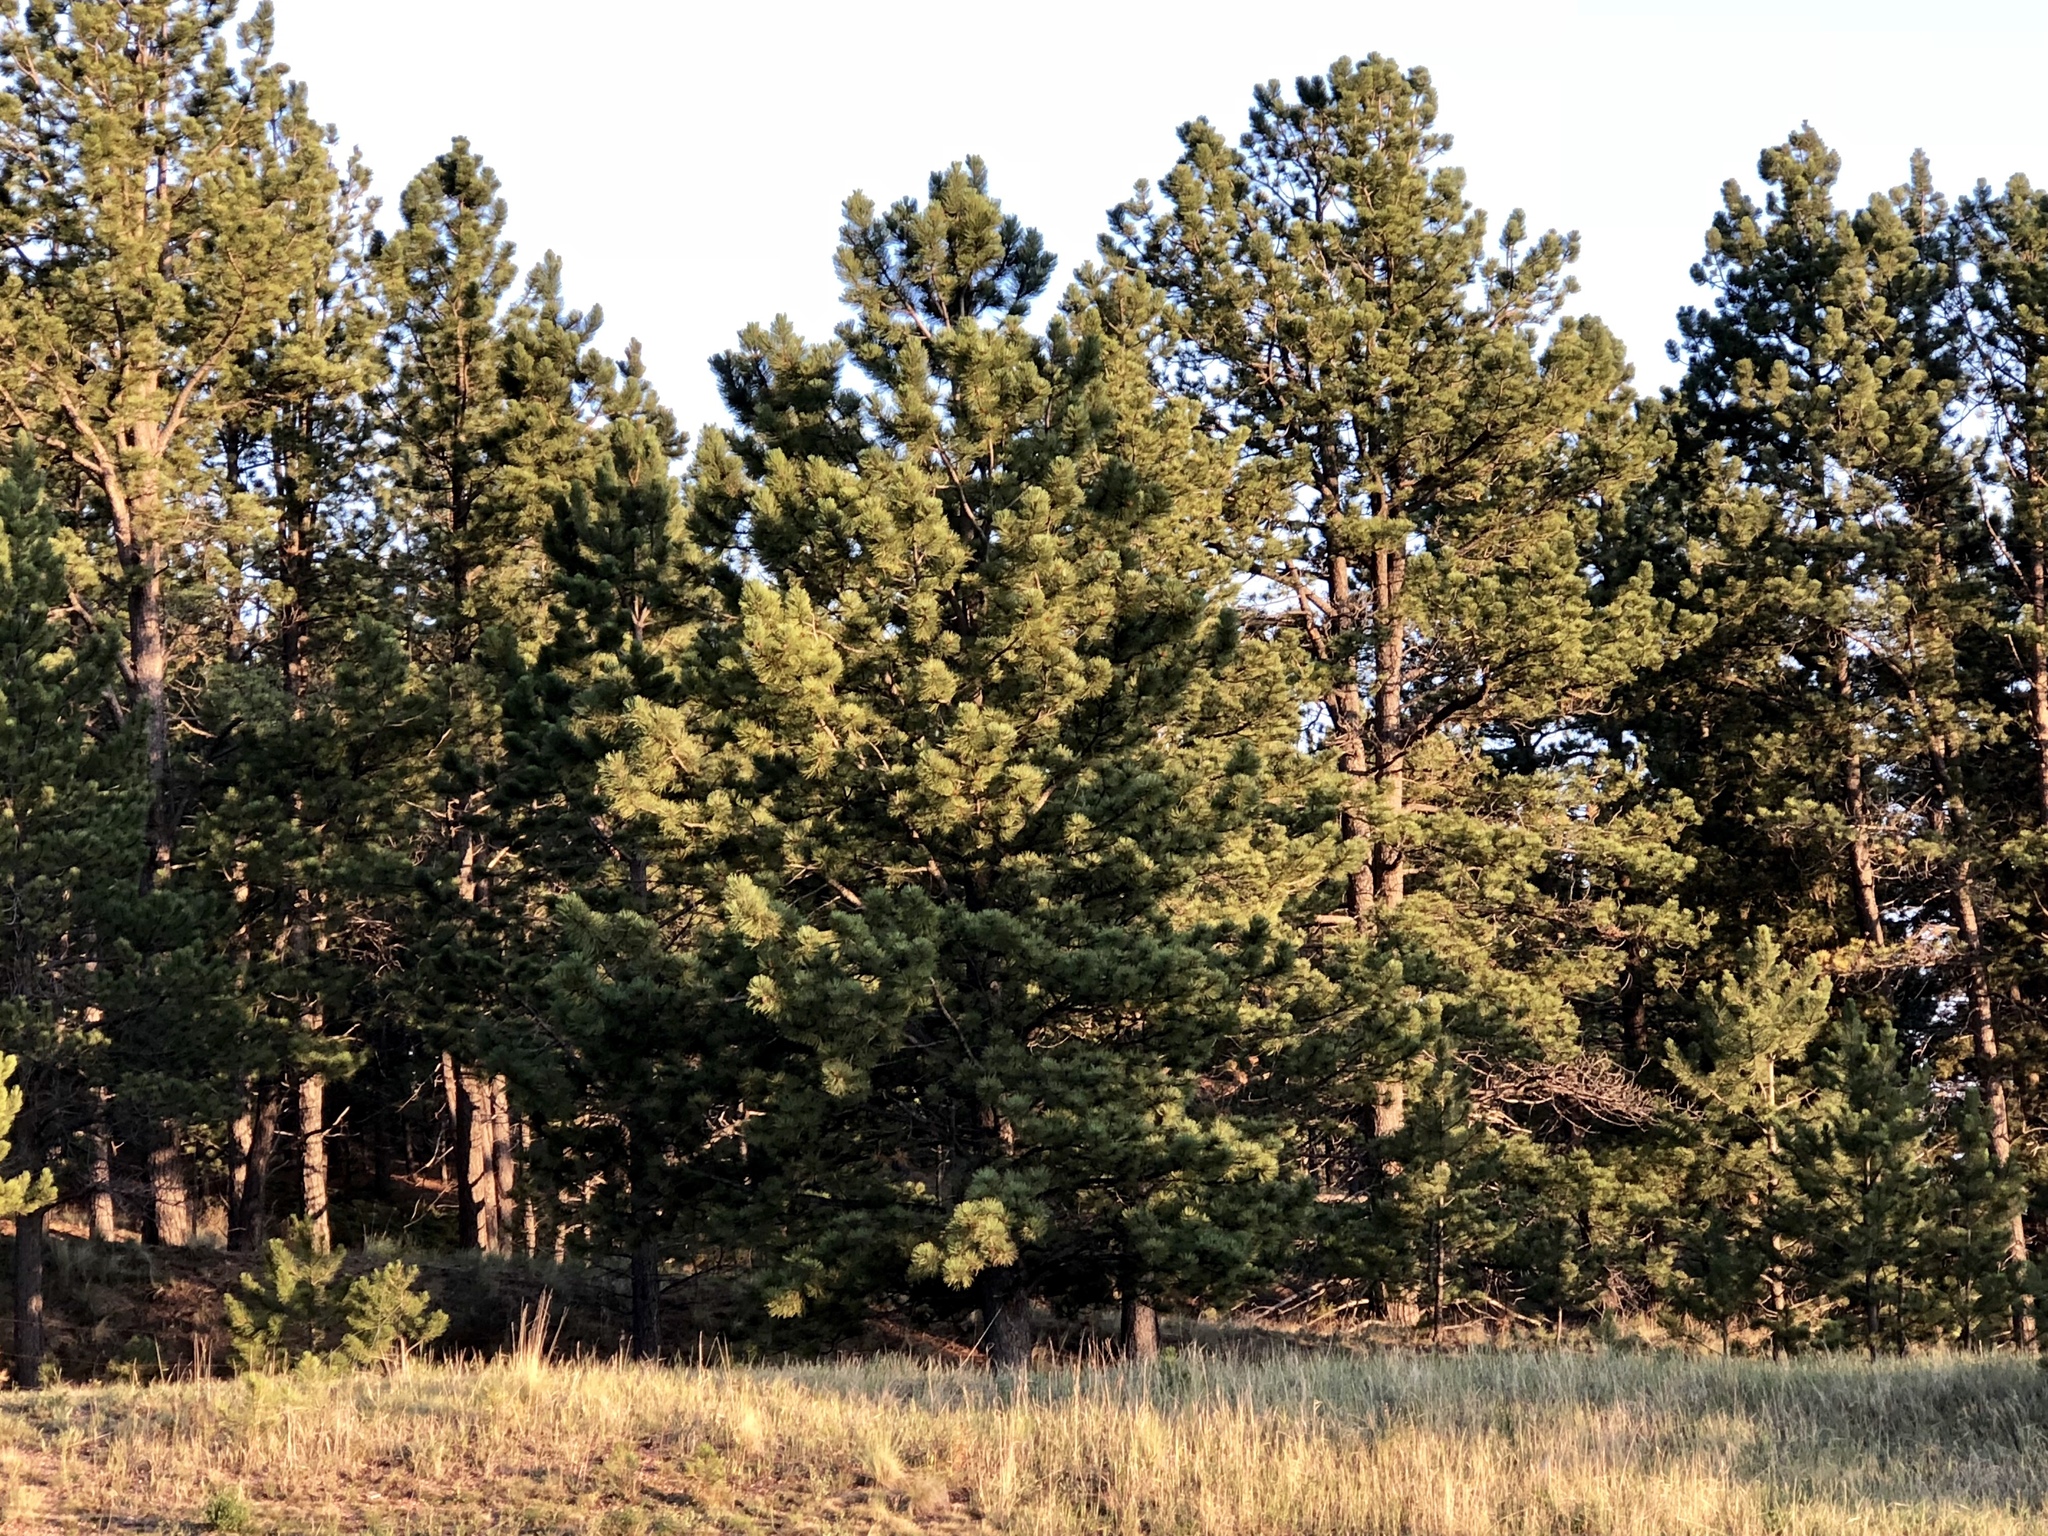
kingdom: Plantae
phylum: Tracheophyta
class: Pinopsida
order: Pinales
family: Pinaceae
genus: Pinus
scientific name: Pinus ponderosa
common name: Western yellow-pine
